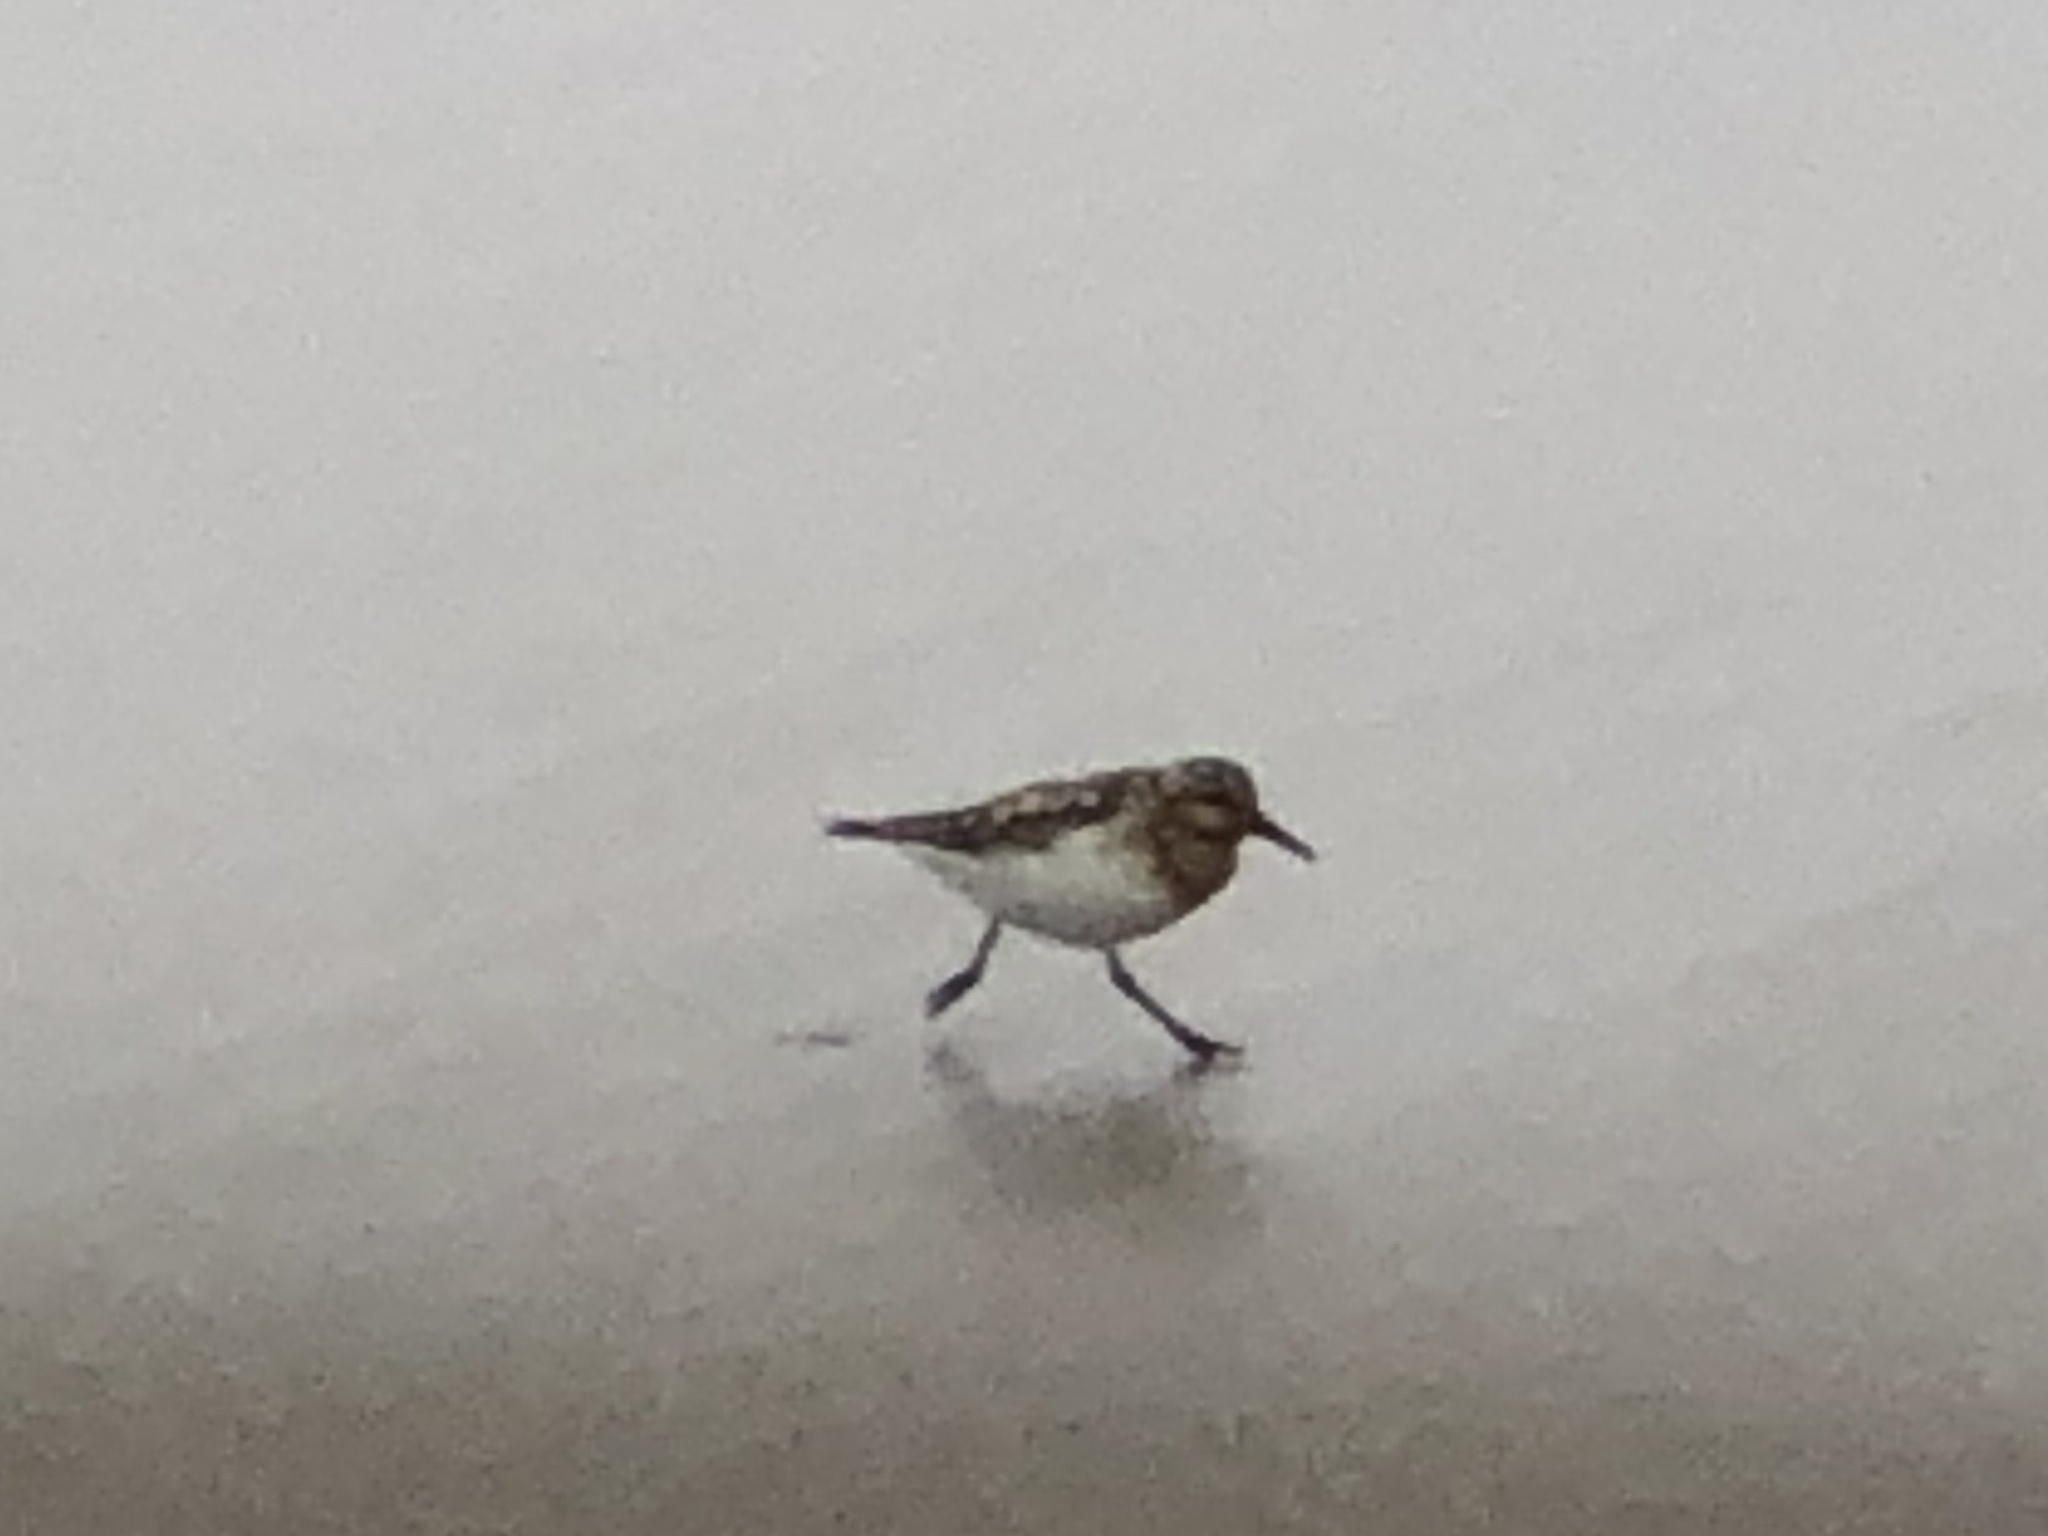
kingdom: Animalia
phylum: Chordata
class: Aves
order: Charadriiformes
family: Scolopacidae
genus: Calidris
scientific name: Calidris alba
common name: Sanderling
